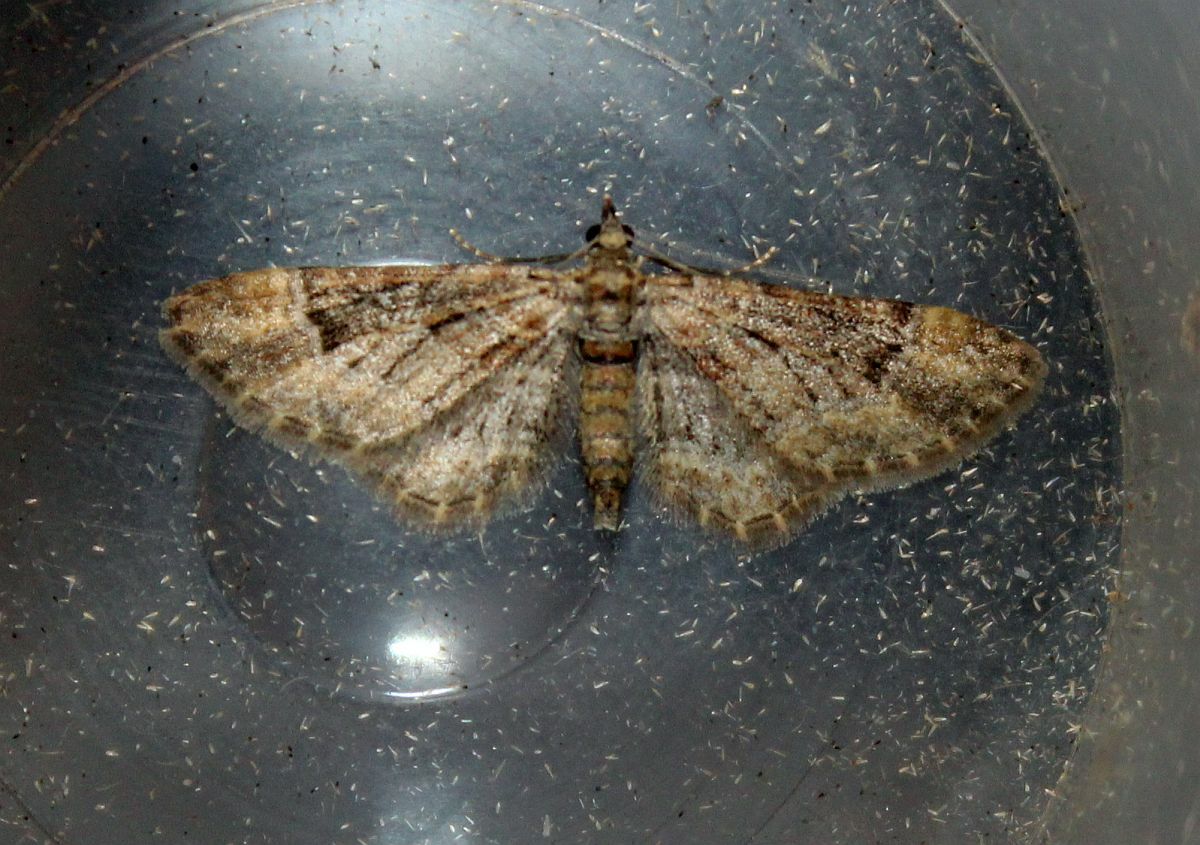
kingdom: Animalia
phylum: Arthropoda
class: Insecta
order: Lepidoptera
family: Geometridae
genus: Gymnoscelis
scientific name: Gymnoscelis rufifasciata
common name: Double-striped pug
